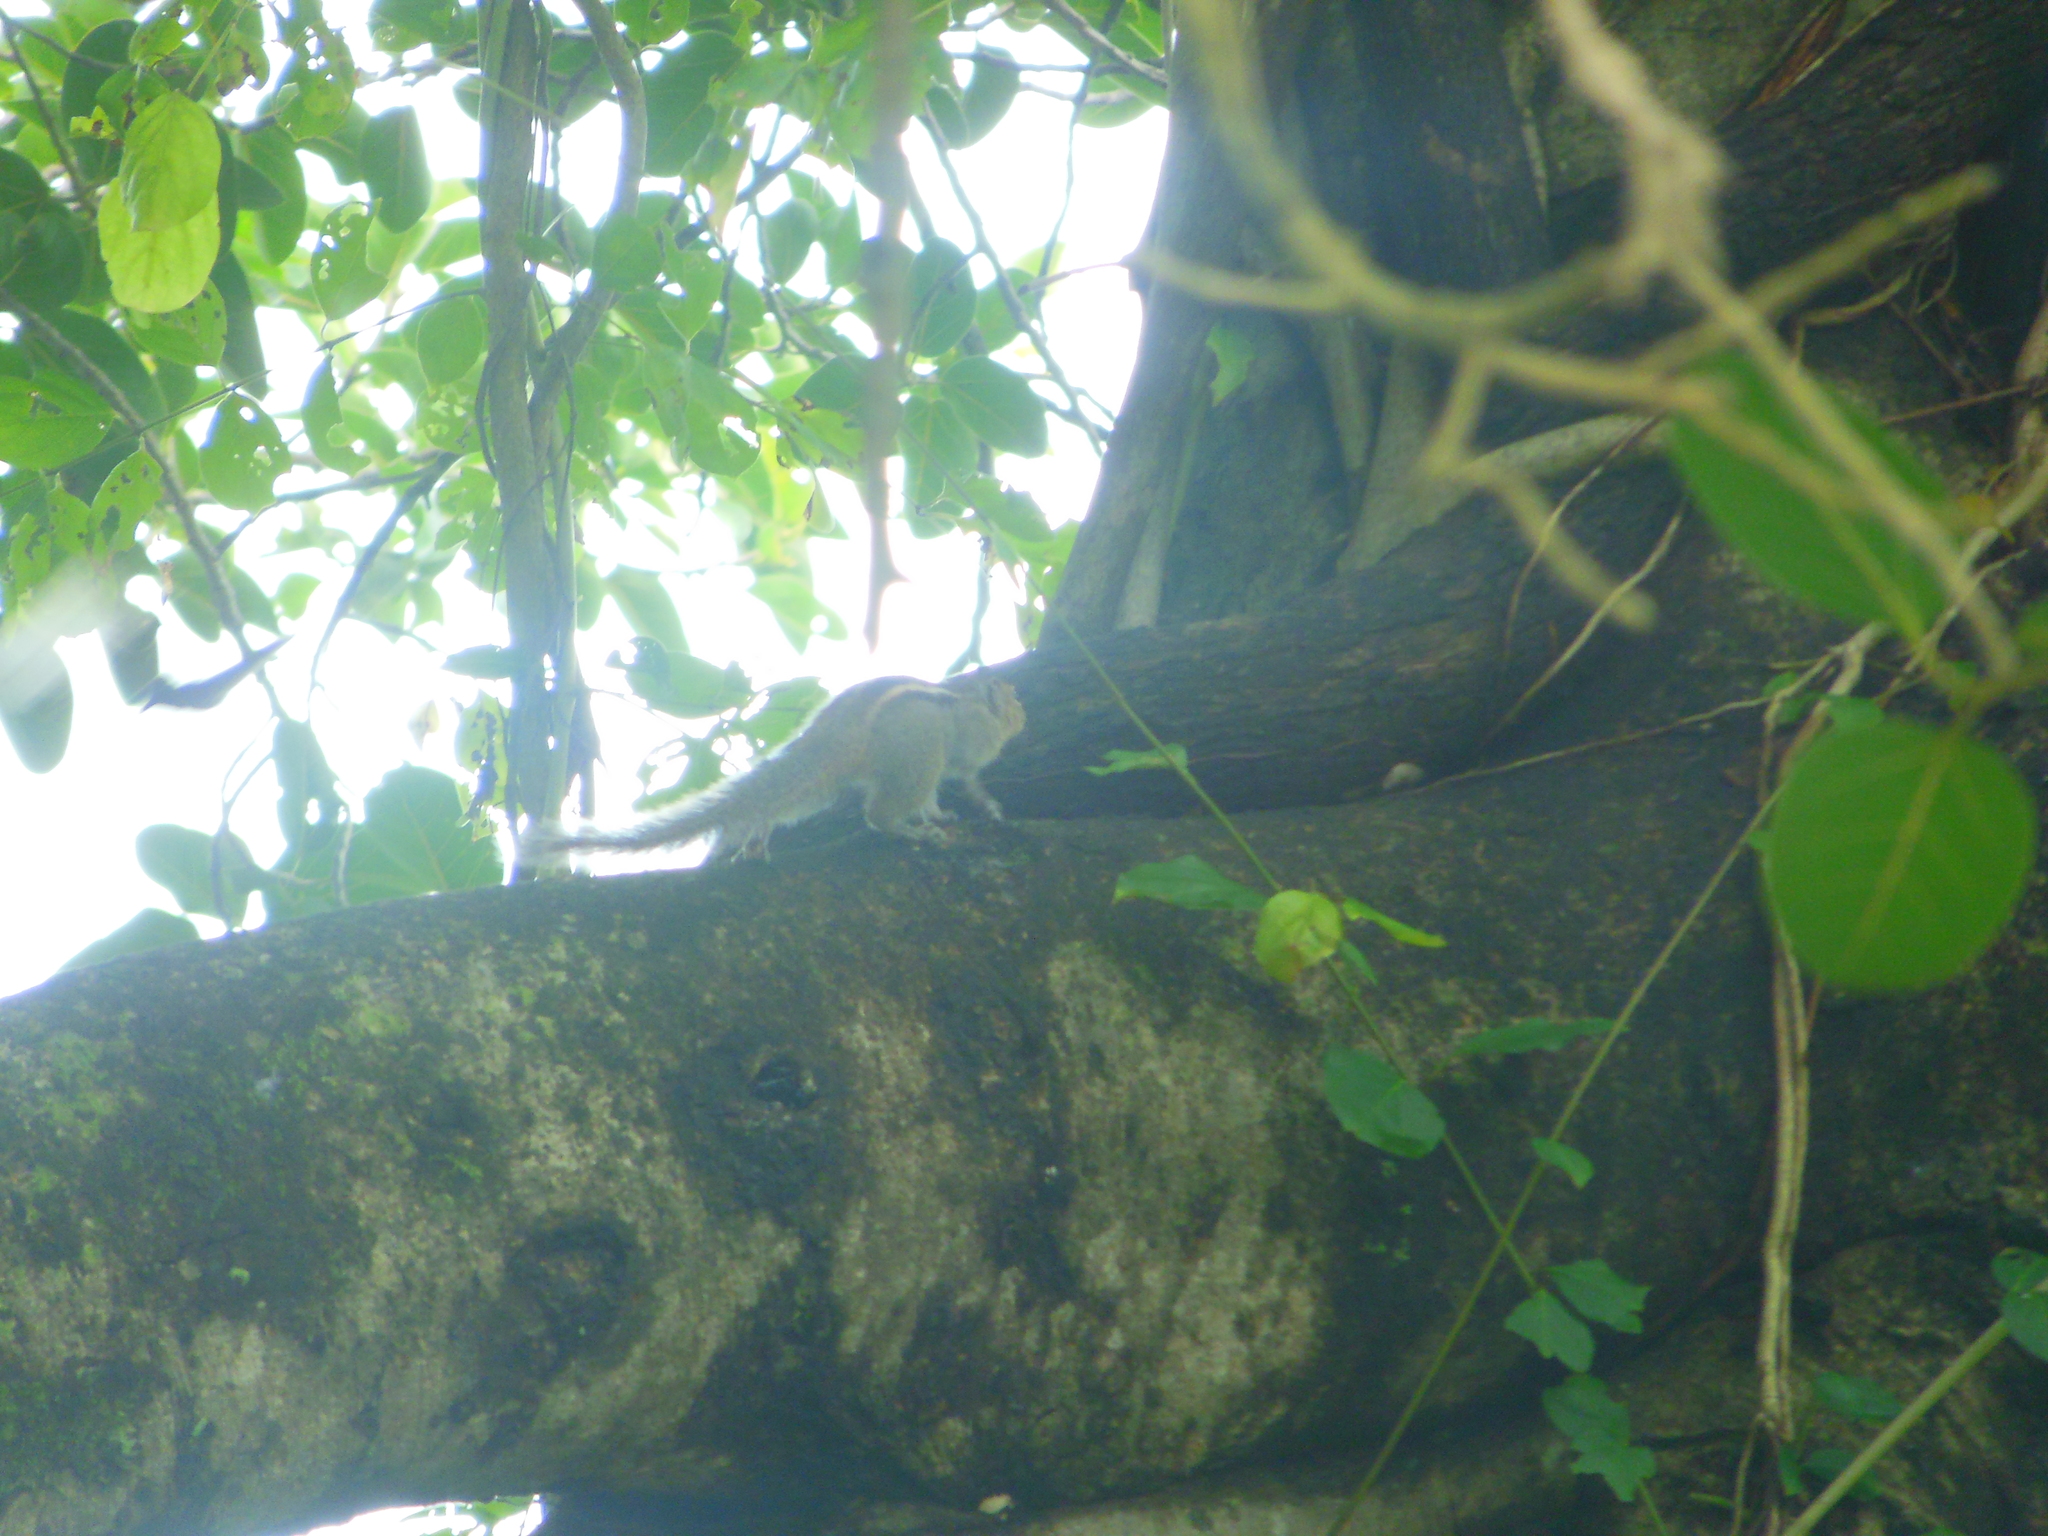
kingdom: Animalia
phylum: Chordata
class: Mammalia
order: Rodentia
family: Sciuridae
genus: Funambulus
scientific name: Funambulus tristriatus
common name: Jungle palm squirrel
